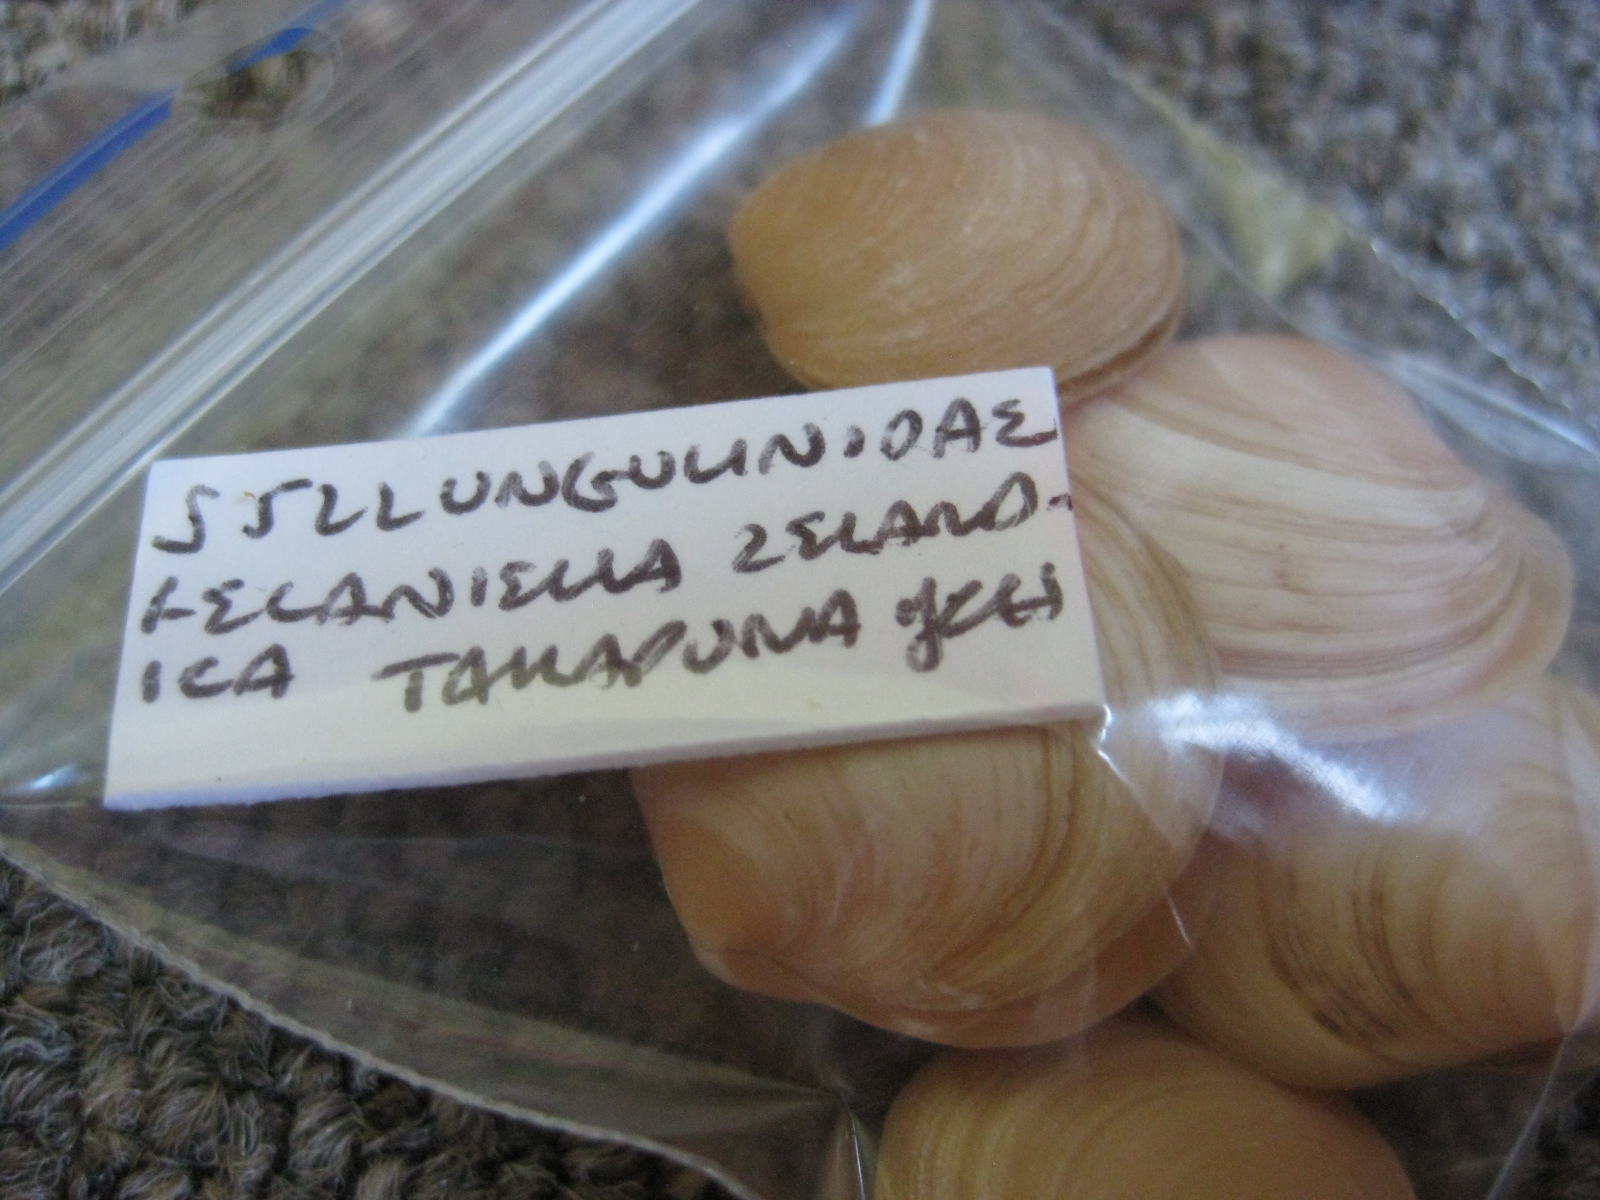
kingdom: Animalia
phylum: Mollusca
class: Bivalvia
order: Venerida
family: Ungulinidae
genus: Zemysia
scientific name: Zemysia zelandica
